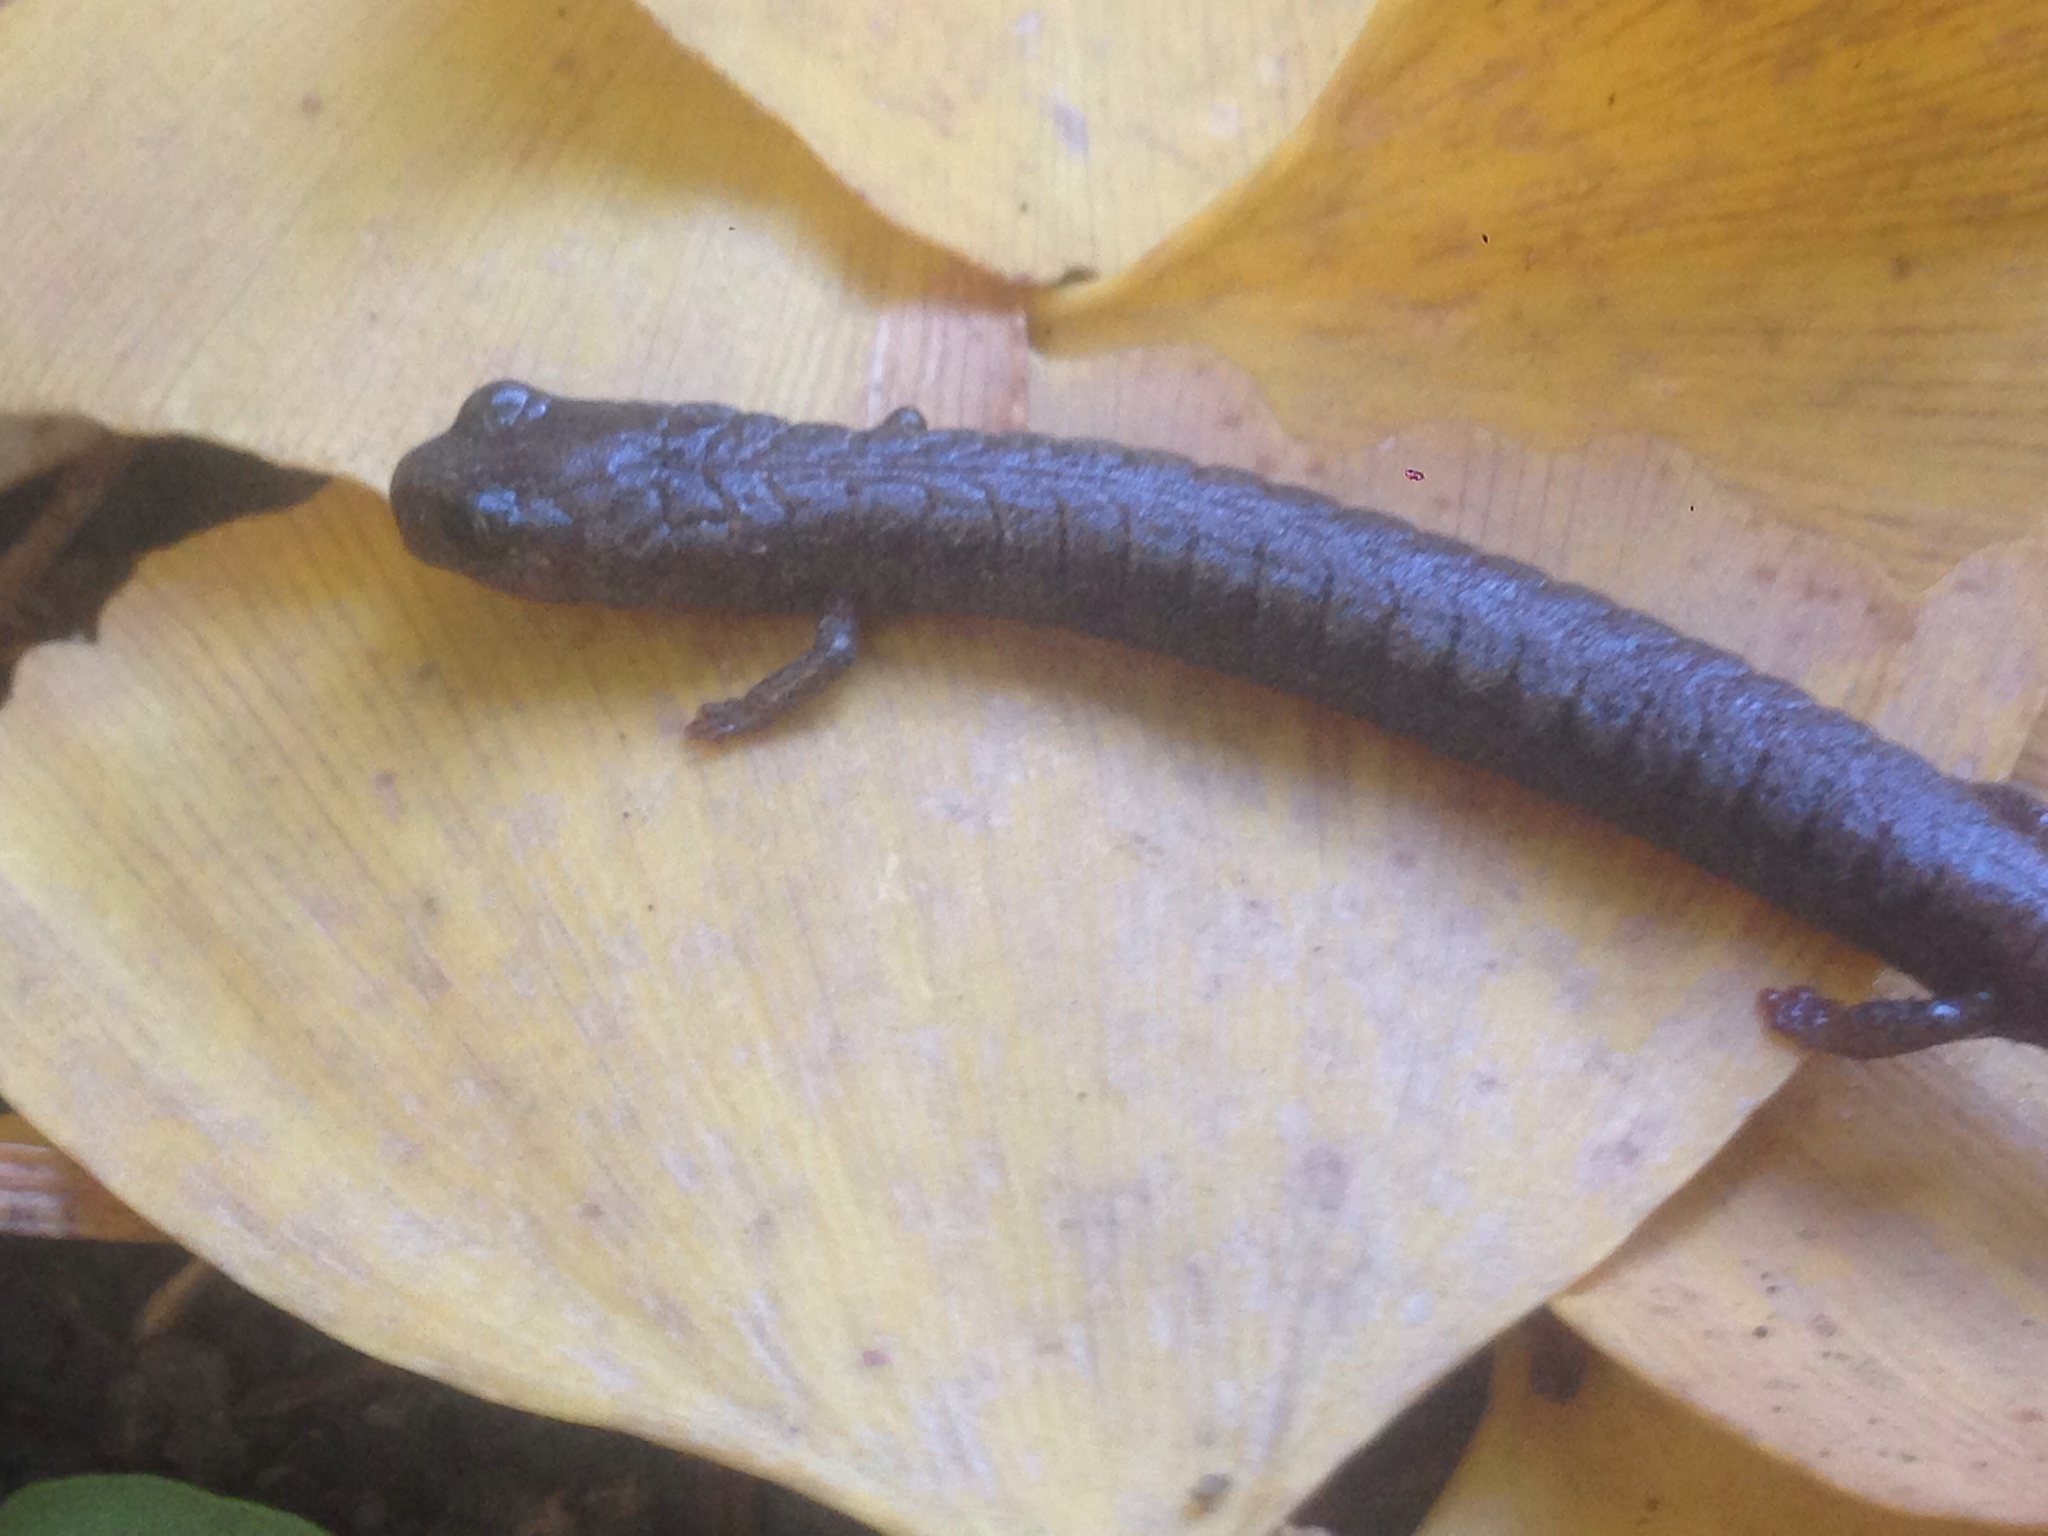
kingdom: Animalia
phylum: Chordata
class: Amphibia
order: Caudata
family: Plethodontidae
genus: Batrachoseps
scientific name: Batrachoseps nigriventris
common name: Black-bellied slender salamander
